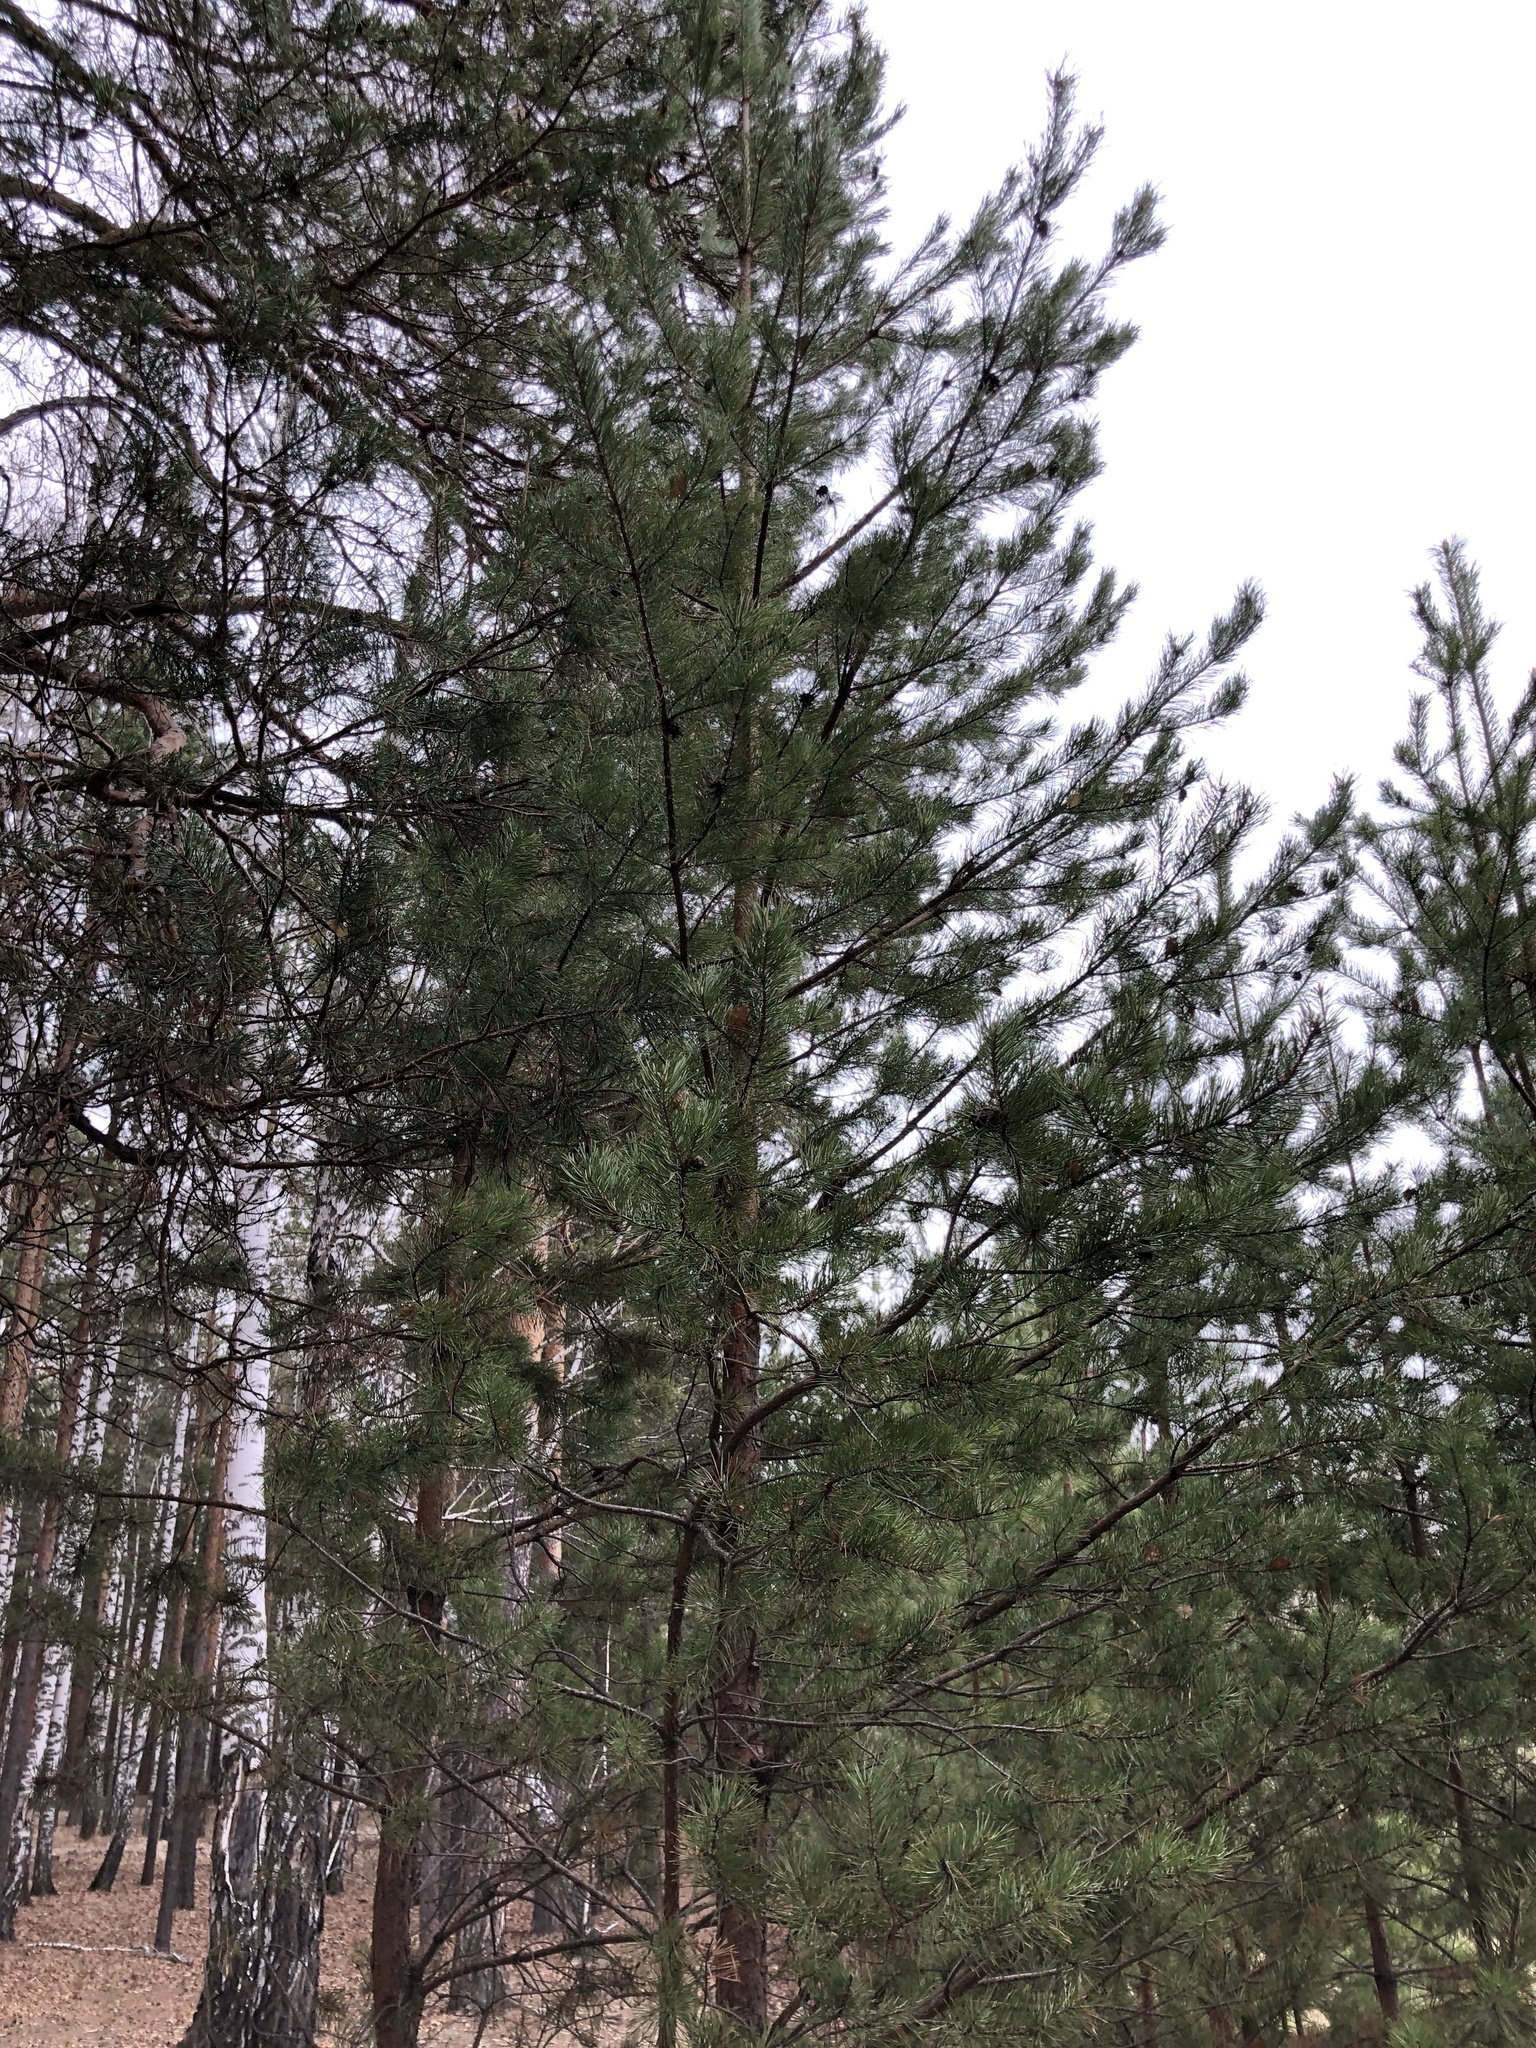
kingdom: Plantae
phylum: Tracheophyta
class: Pinopsida
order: Pinales
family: Pinaceae
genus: Pinus
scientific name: Pinus sylvestris
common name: Scots pine
